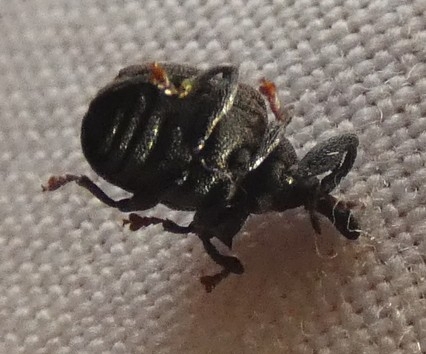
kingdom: Animalia
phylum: Arthropoda
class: Insecta
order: Coleoptera
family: Curculionidae
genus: Odontopus
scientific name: Odontopus calceatus
